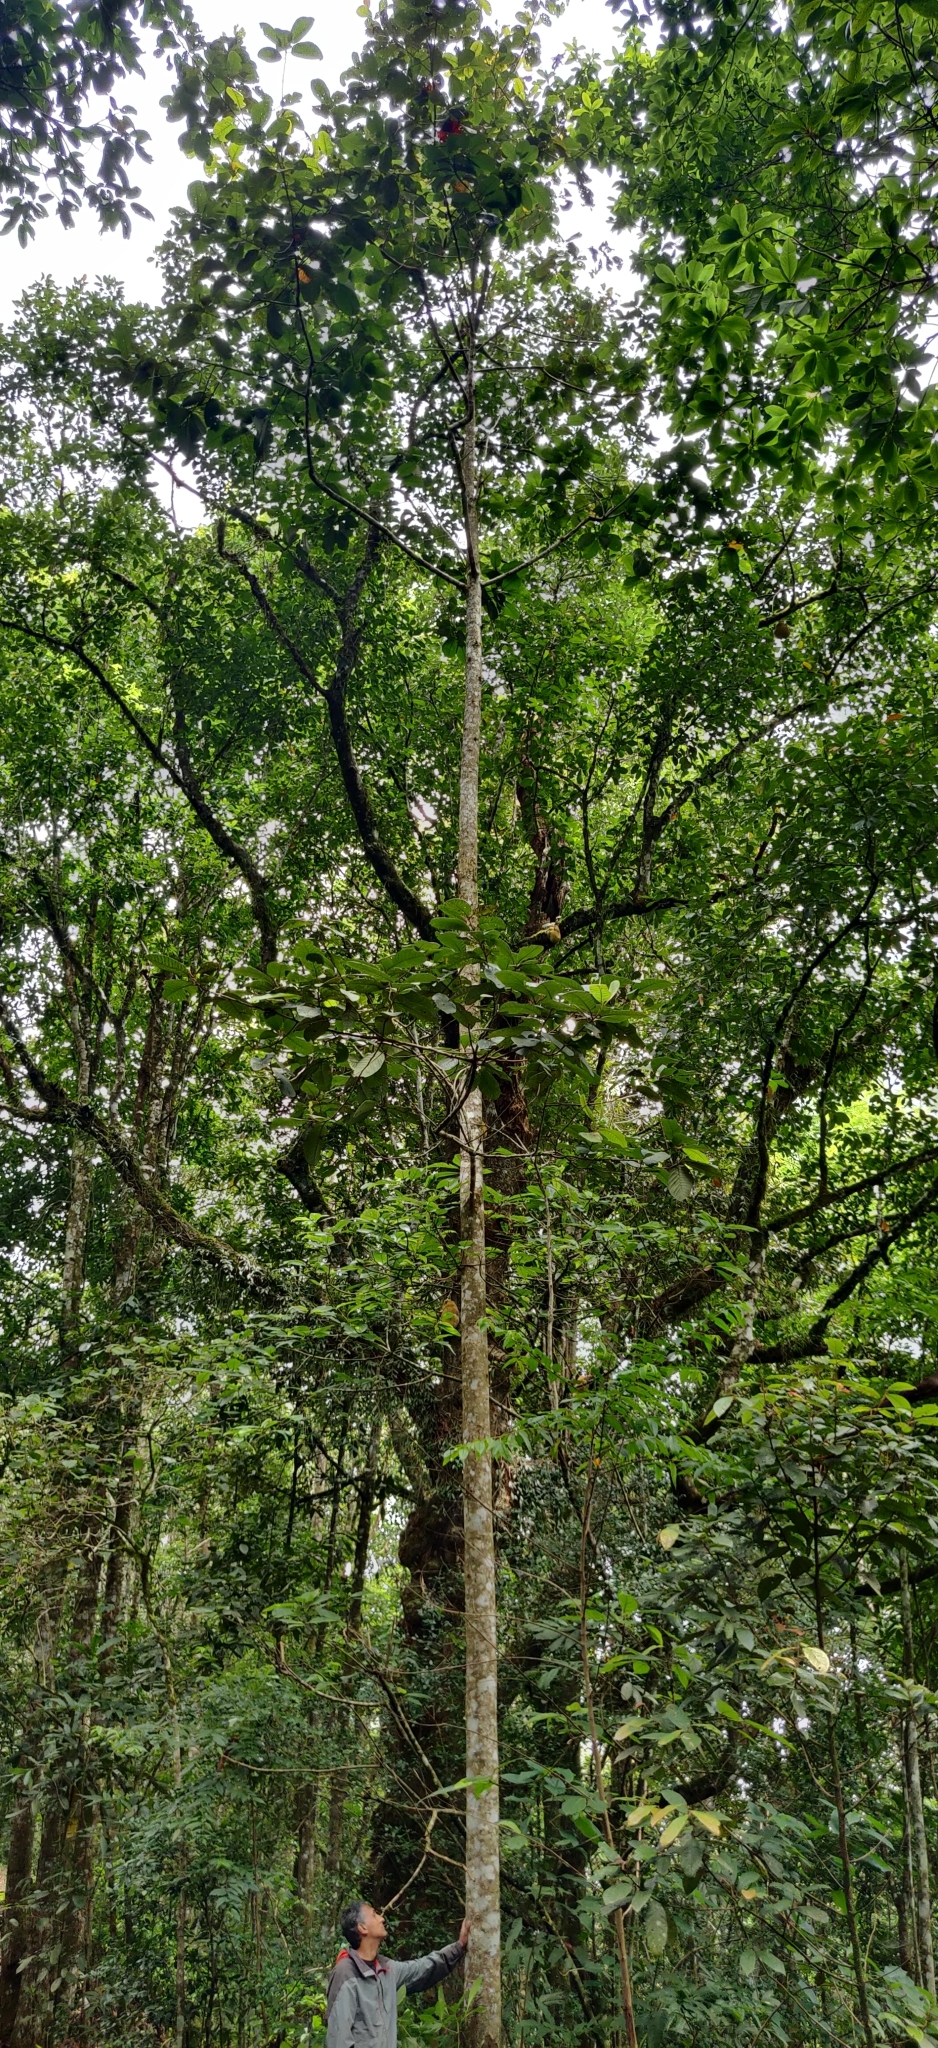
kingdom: Plantae
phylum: Tracheophyta
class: Magnoliopsida
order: Laurales
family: Lauraceae
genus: Litsea
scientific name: Litsea keralana
